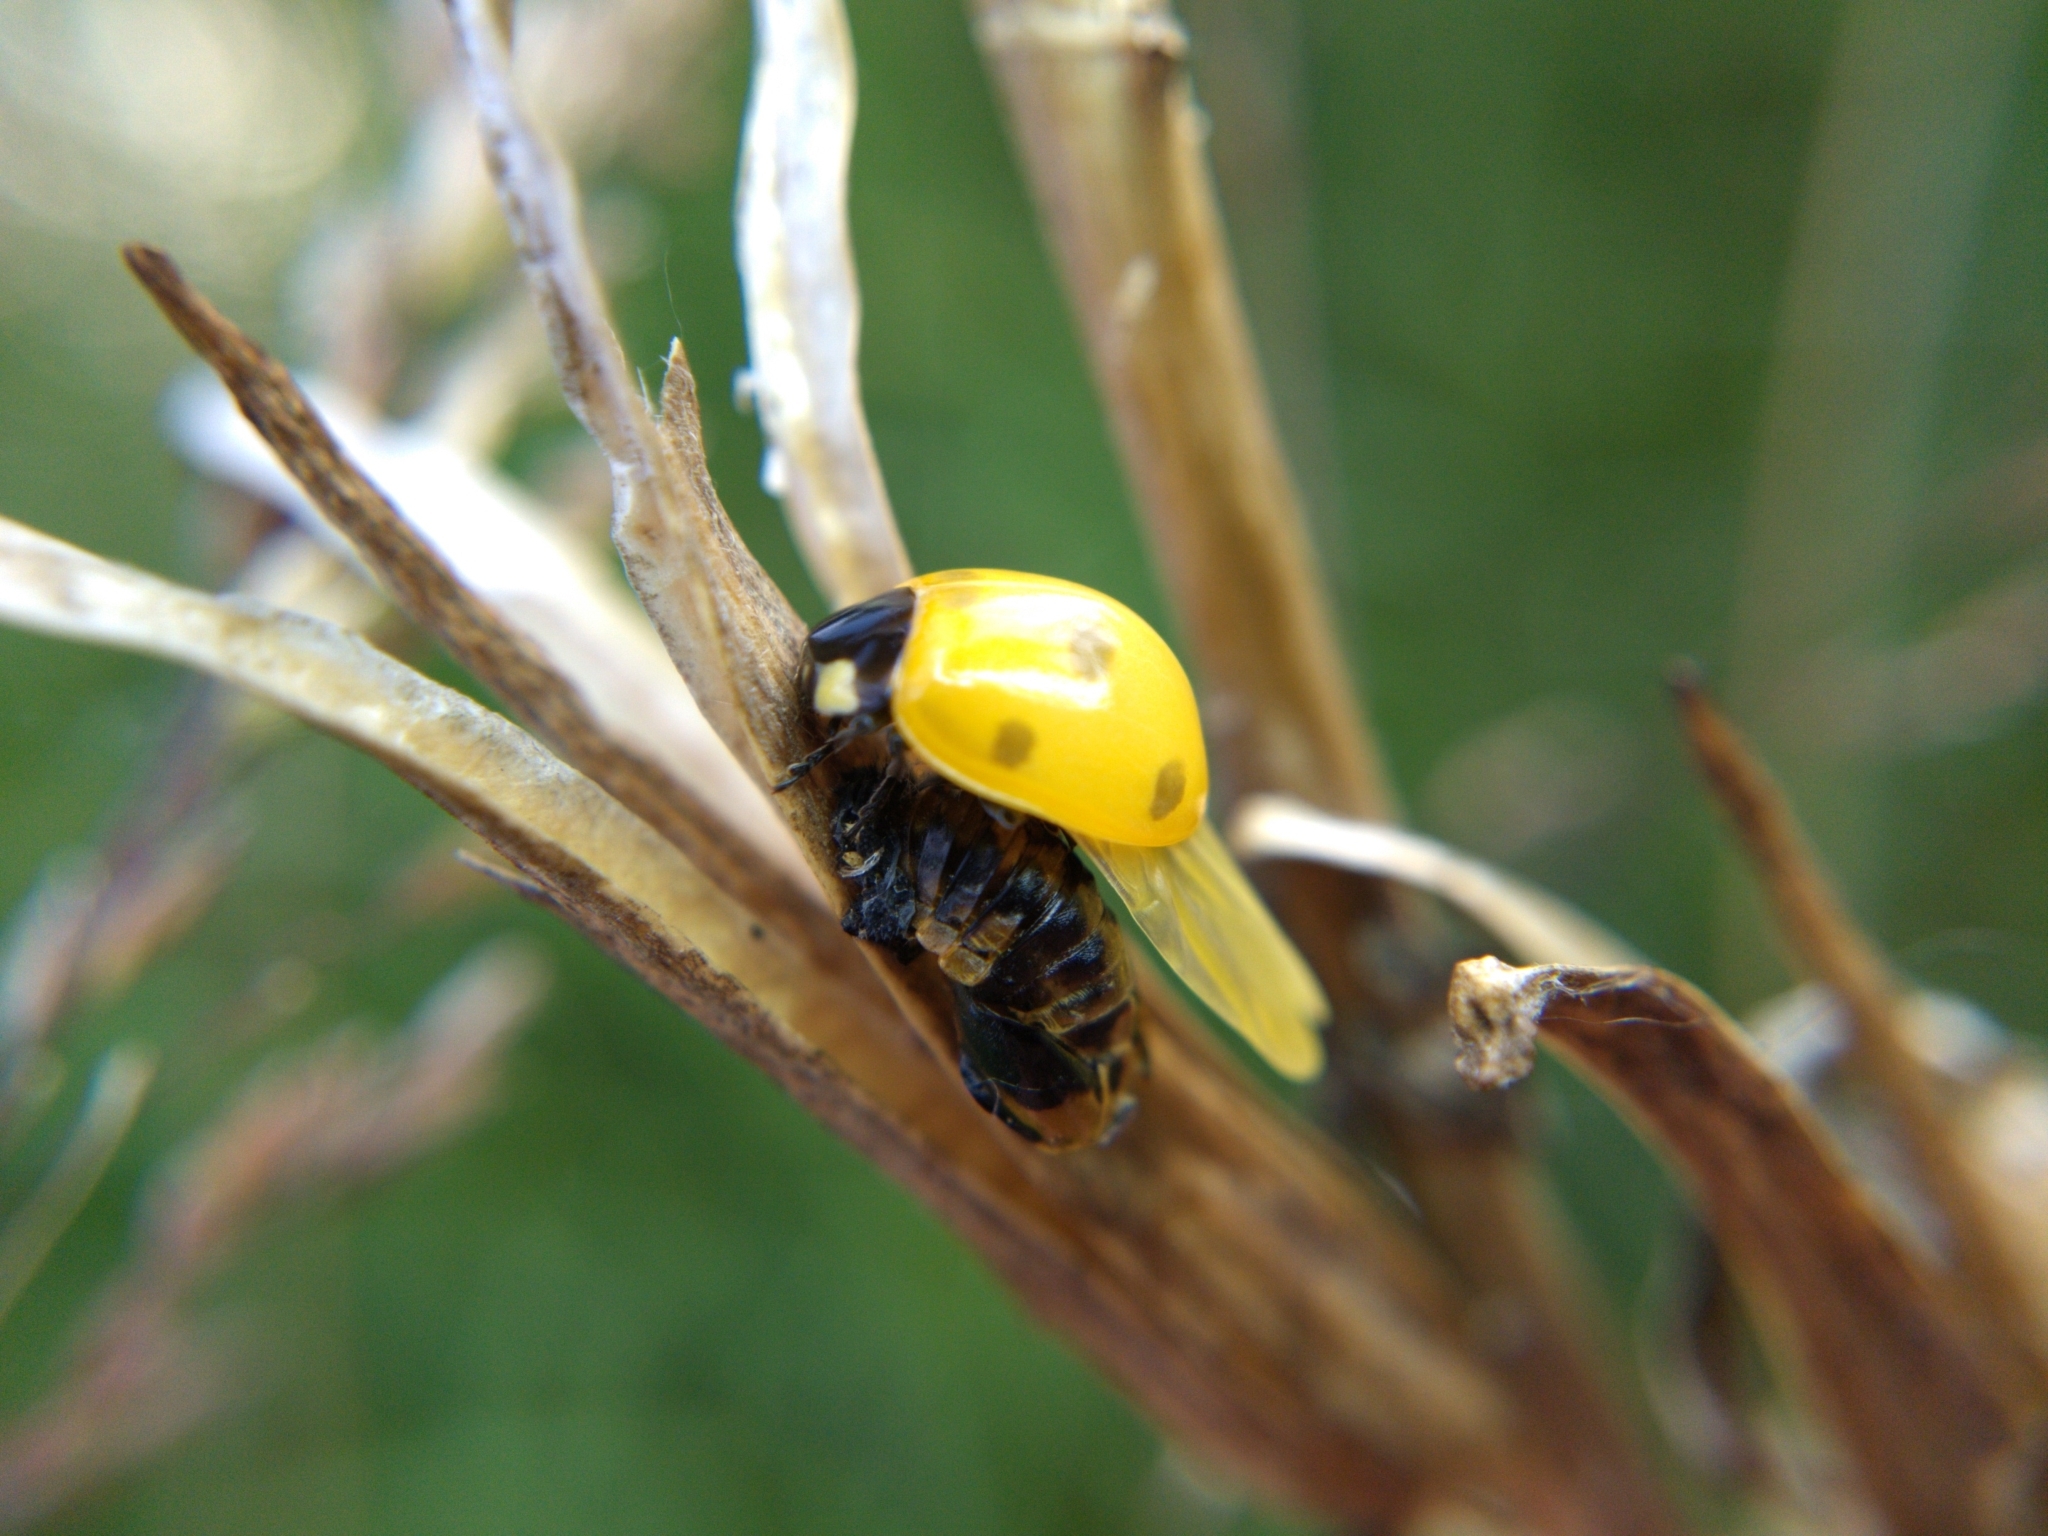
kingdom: Animalia
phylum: Arthropoda
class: Insecta
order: Coleoptera
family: Coccinellidae
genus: Coccinella
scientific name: Coccinella septempunctata
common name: Sevenspotted lady beetle
